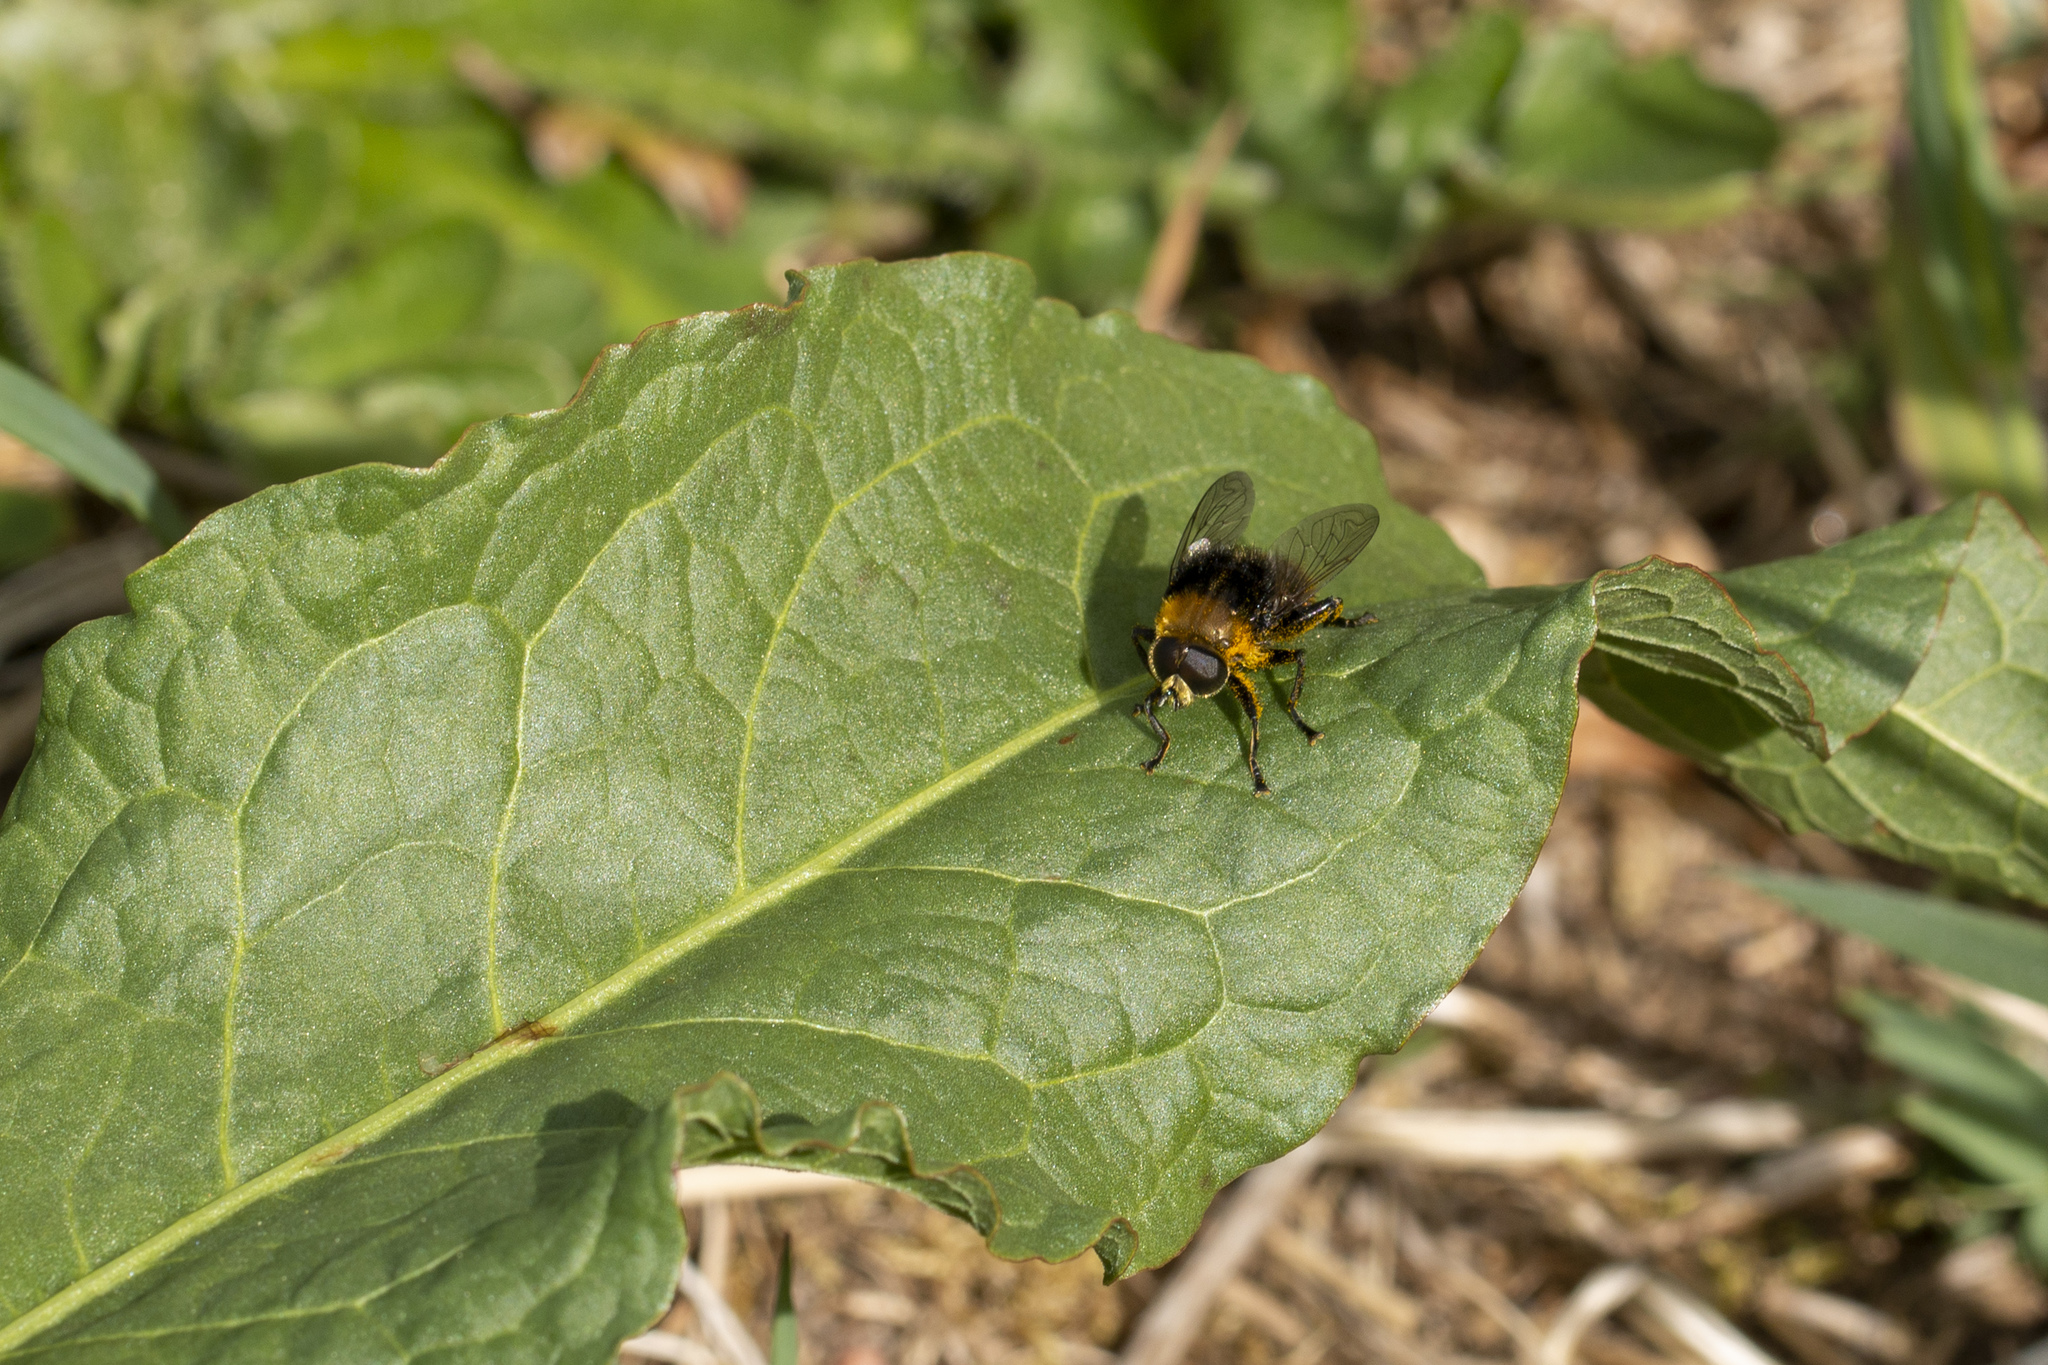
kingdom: Animalia
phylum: Arthropoda
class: Insecta
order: Diptera
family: Syrphidae
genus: Merodon
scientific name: Merodon equestris
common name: Greater bulb-fly
